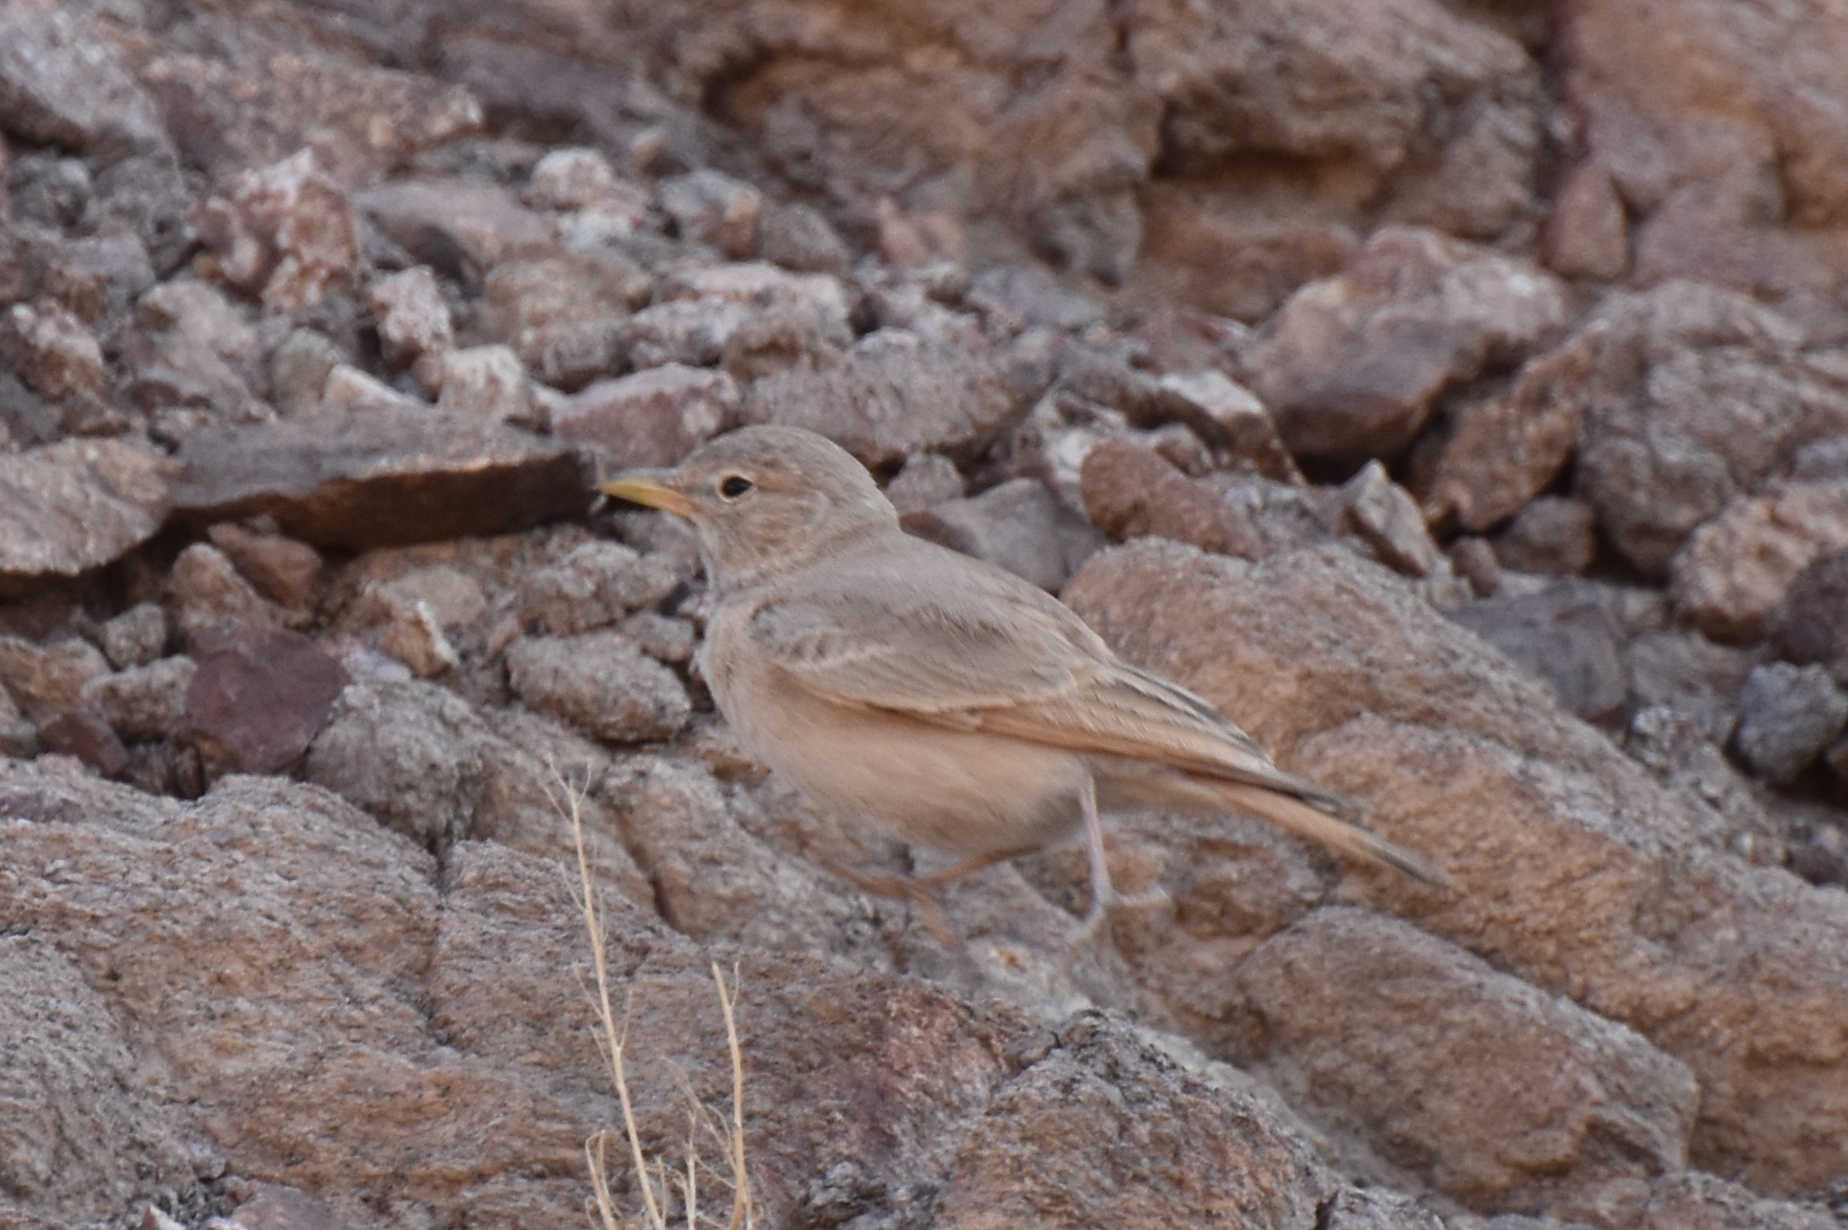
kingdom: Animalia
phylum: Chordata
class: Aves
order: Passeriformes
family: Alaudidae
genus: Ammomanes
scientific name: Ammomanes deserti
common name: Desert lark
